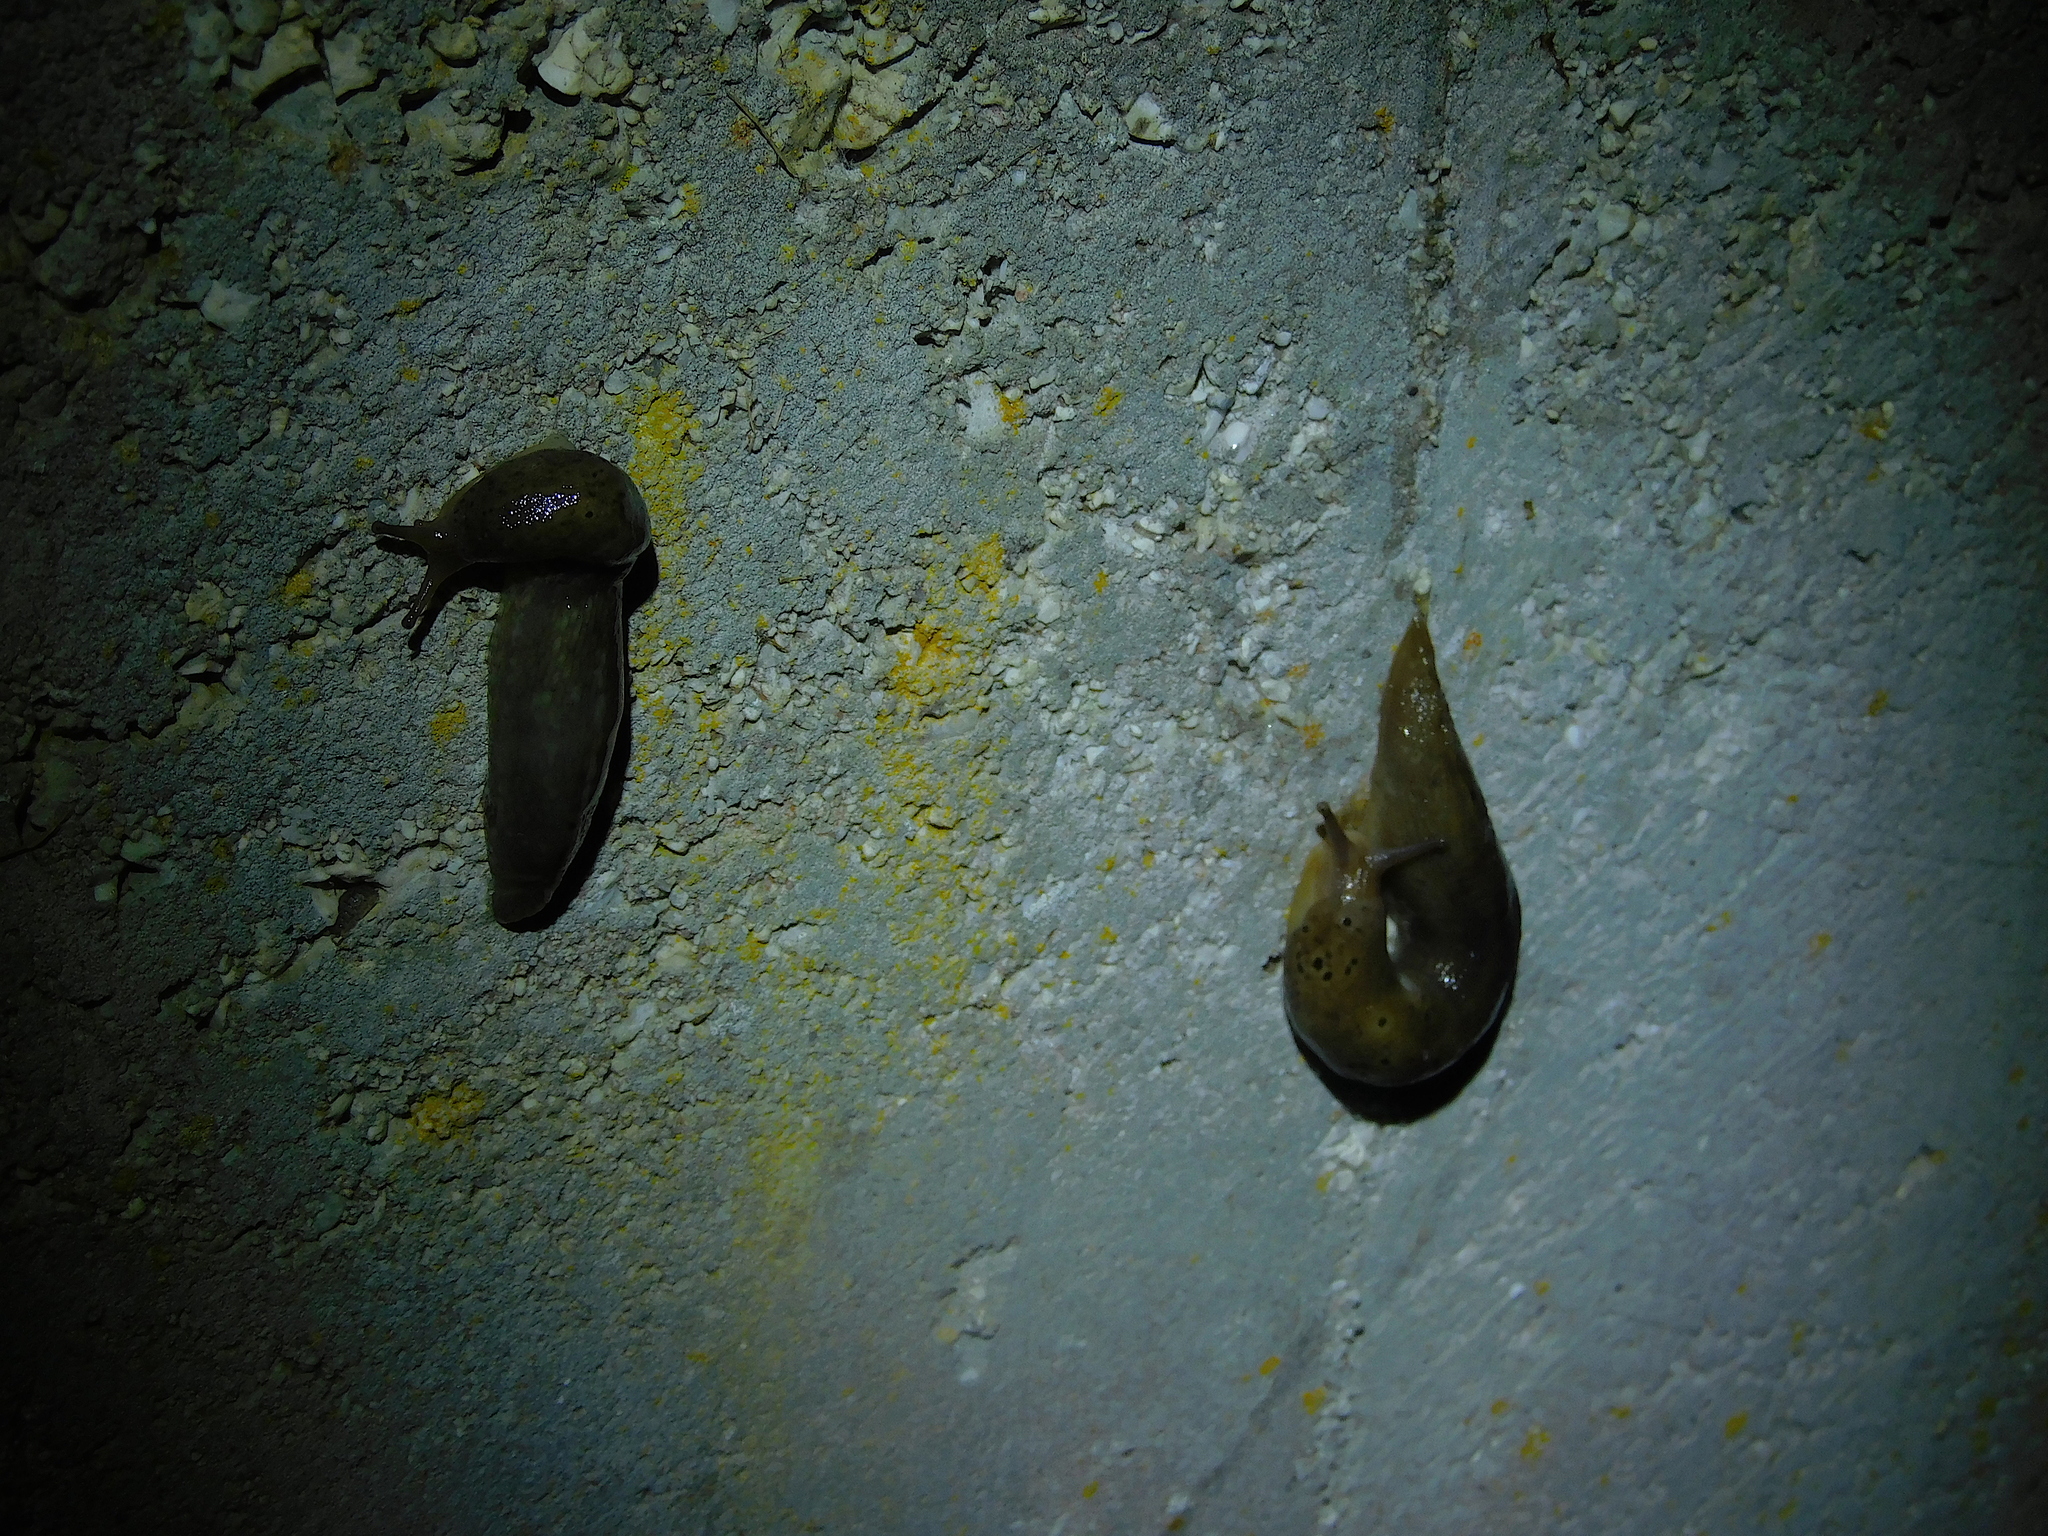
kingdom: Animalia
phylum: Mollusca
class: Gastropoda
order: Stylommatophora
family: Limacidae
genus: Limax
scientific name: Limax maximus
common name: Great grey slug
